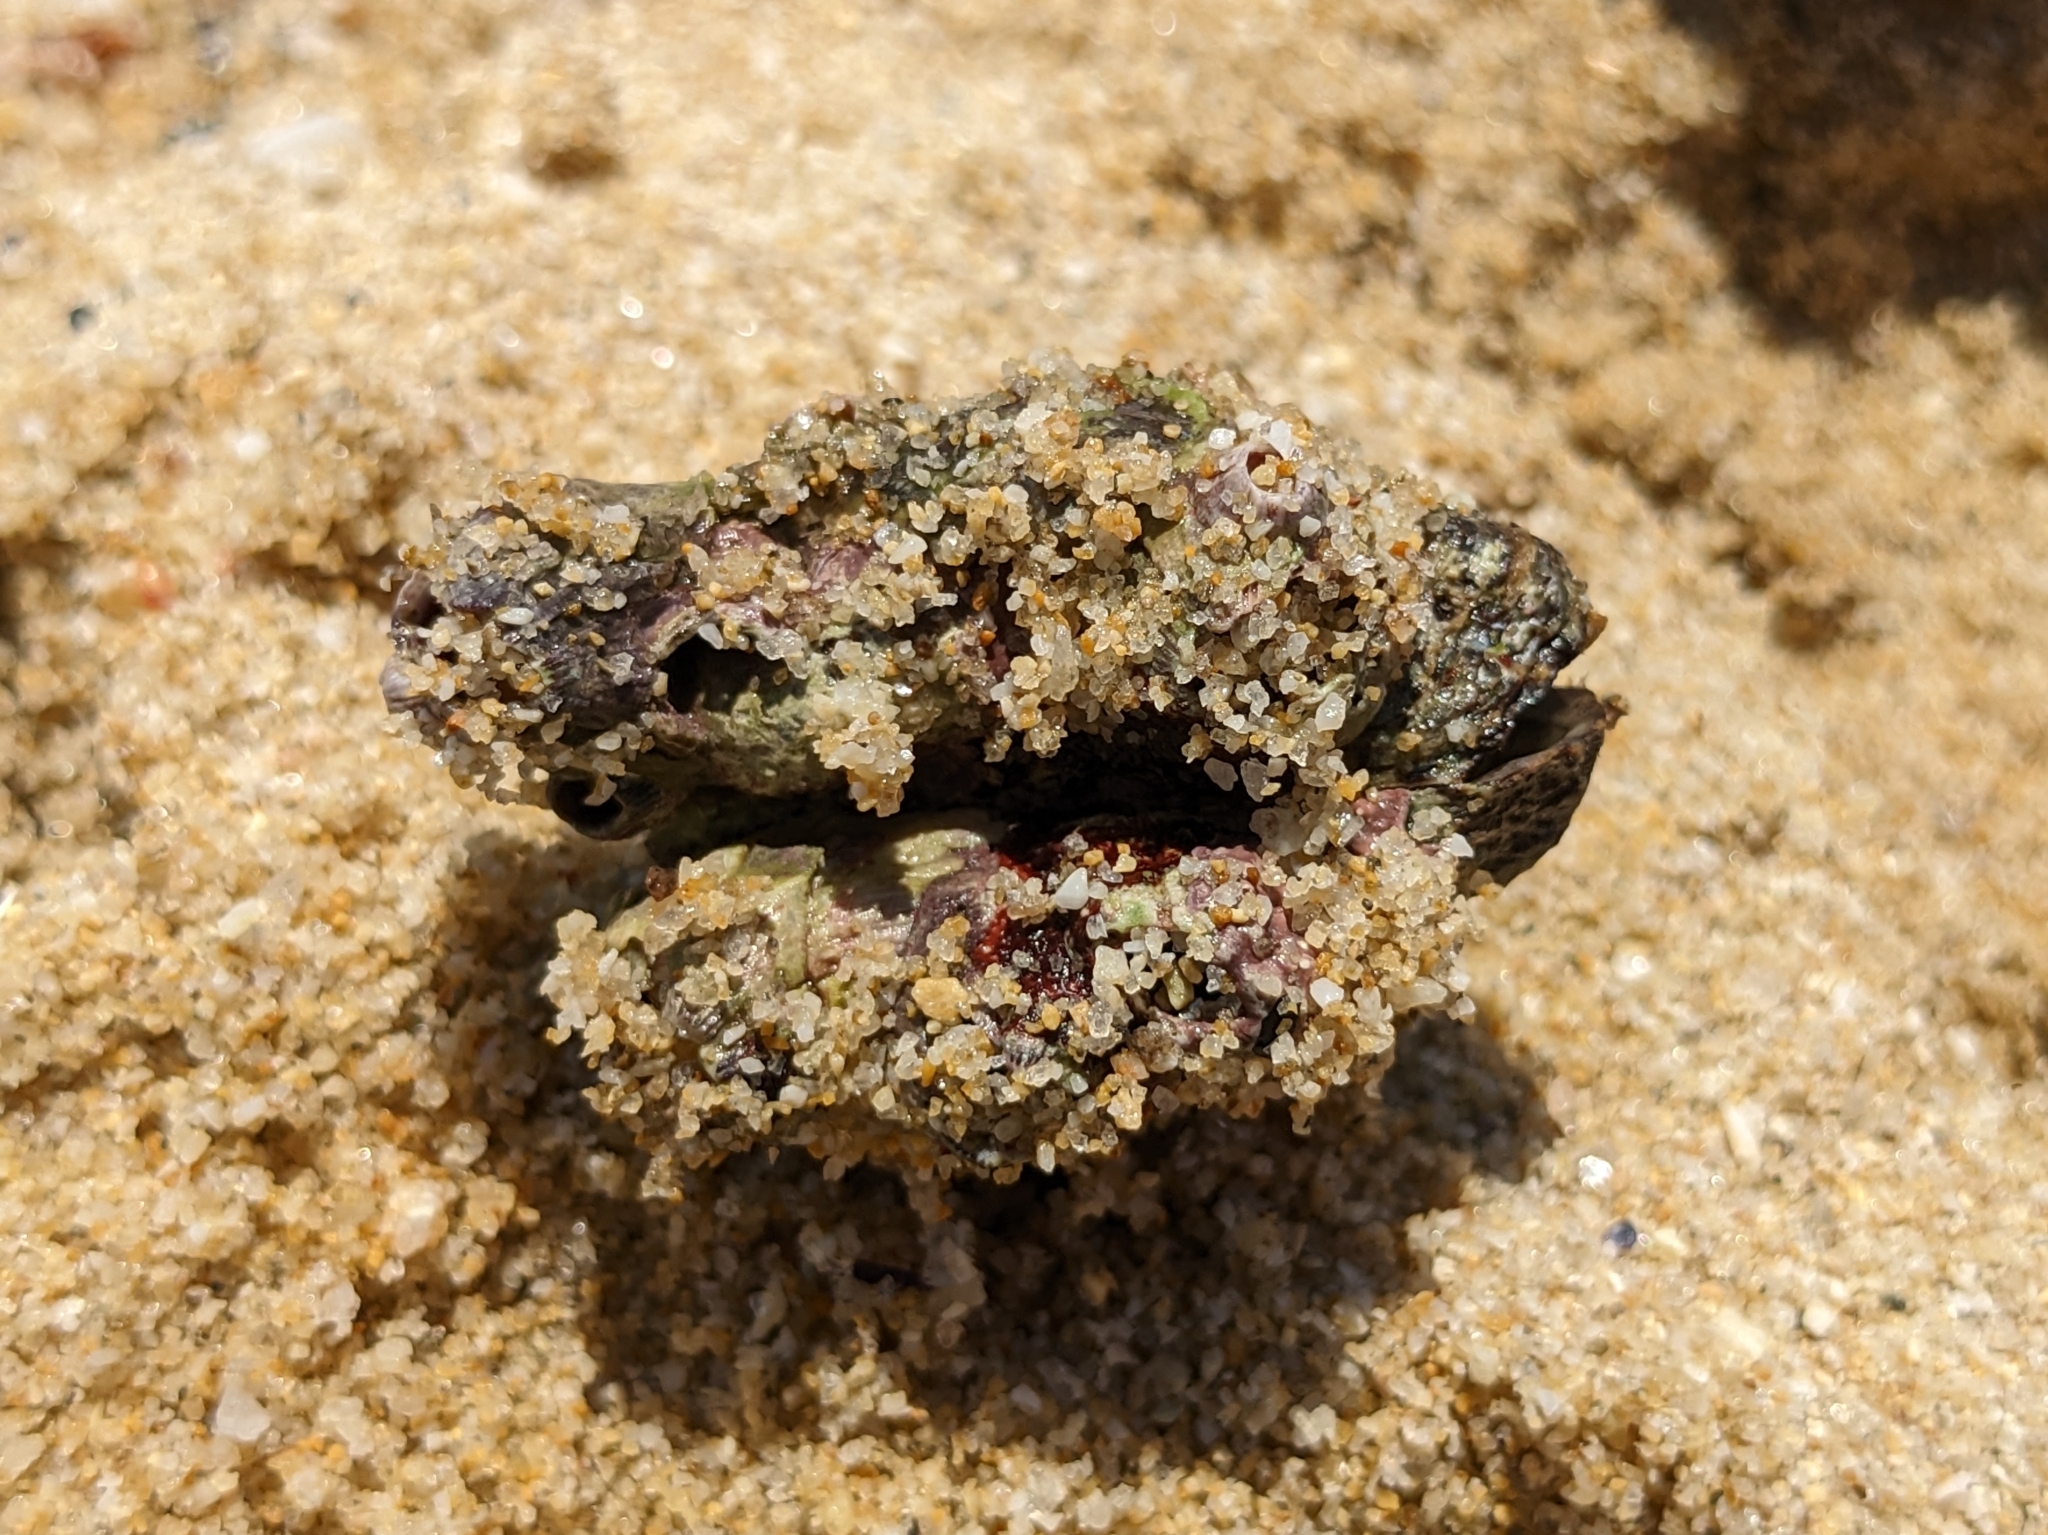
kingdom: Animalia
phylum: Mollusca
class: Bivalvia
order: Arcida
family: Arcidae
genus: Arca
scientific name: Arca noae
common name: Noah's arch
